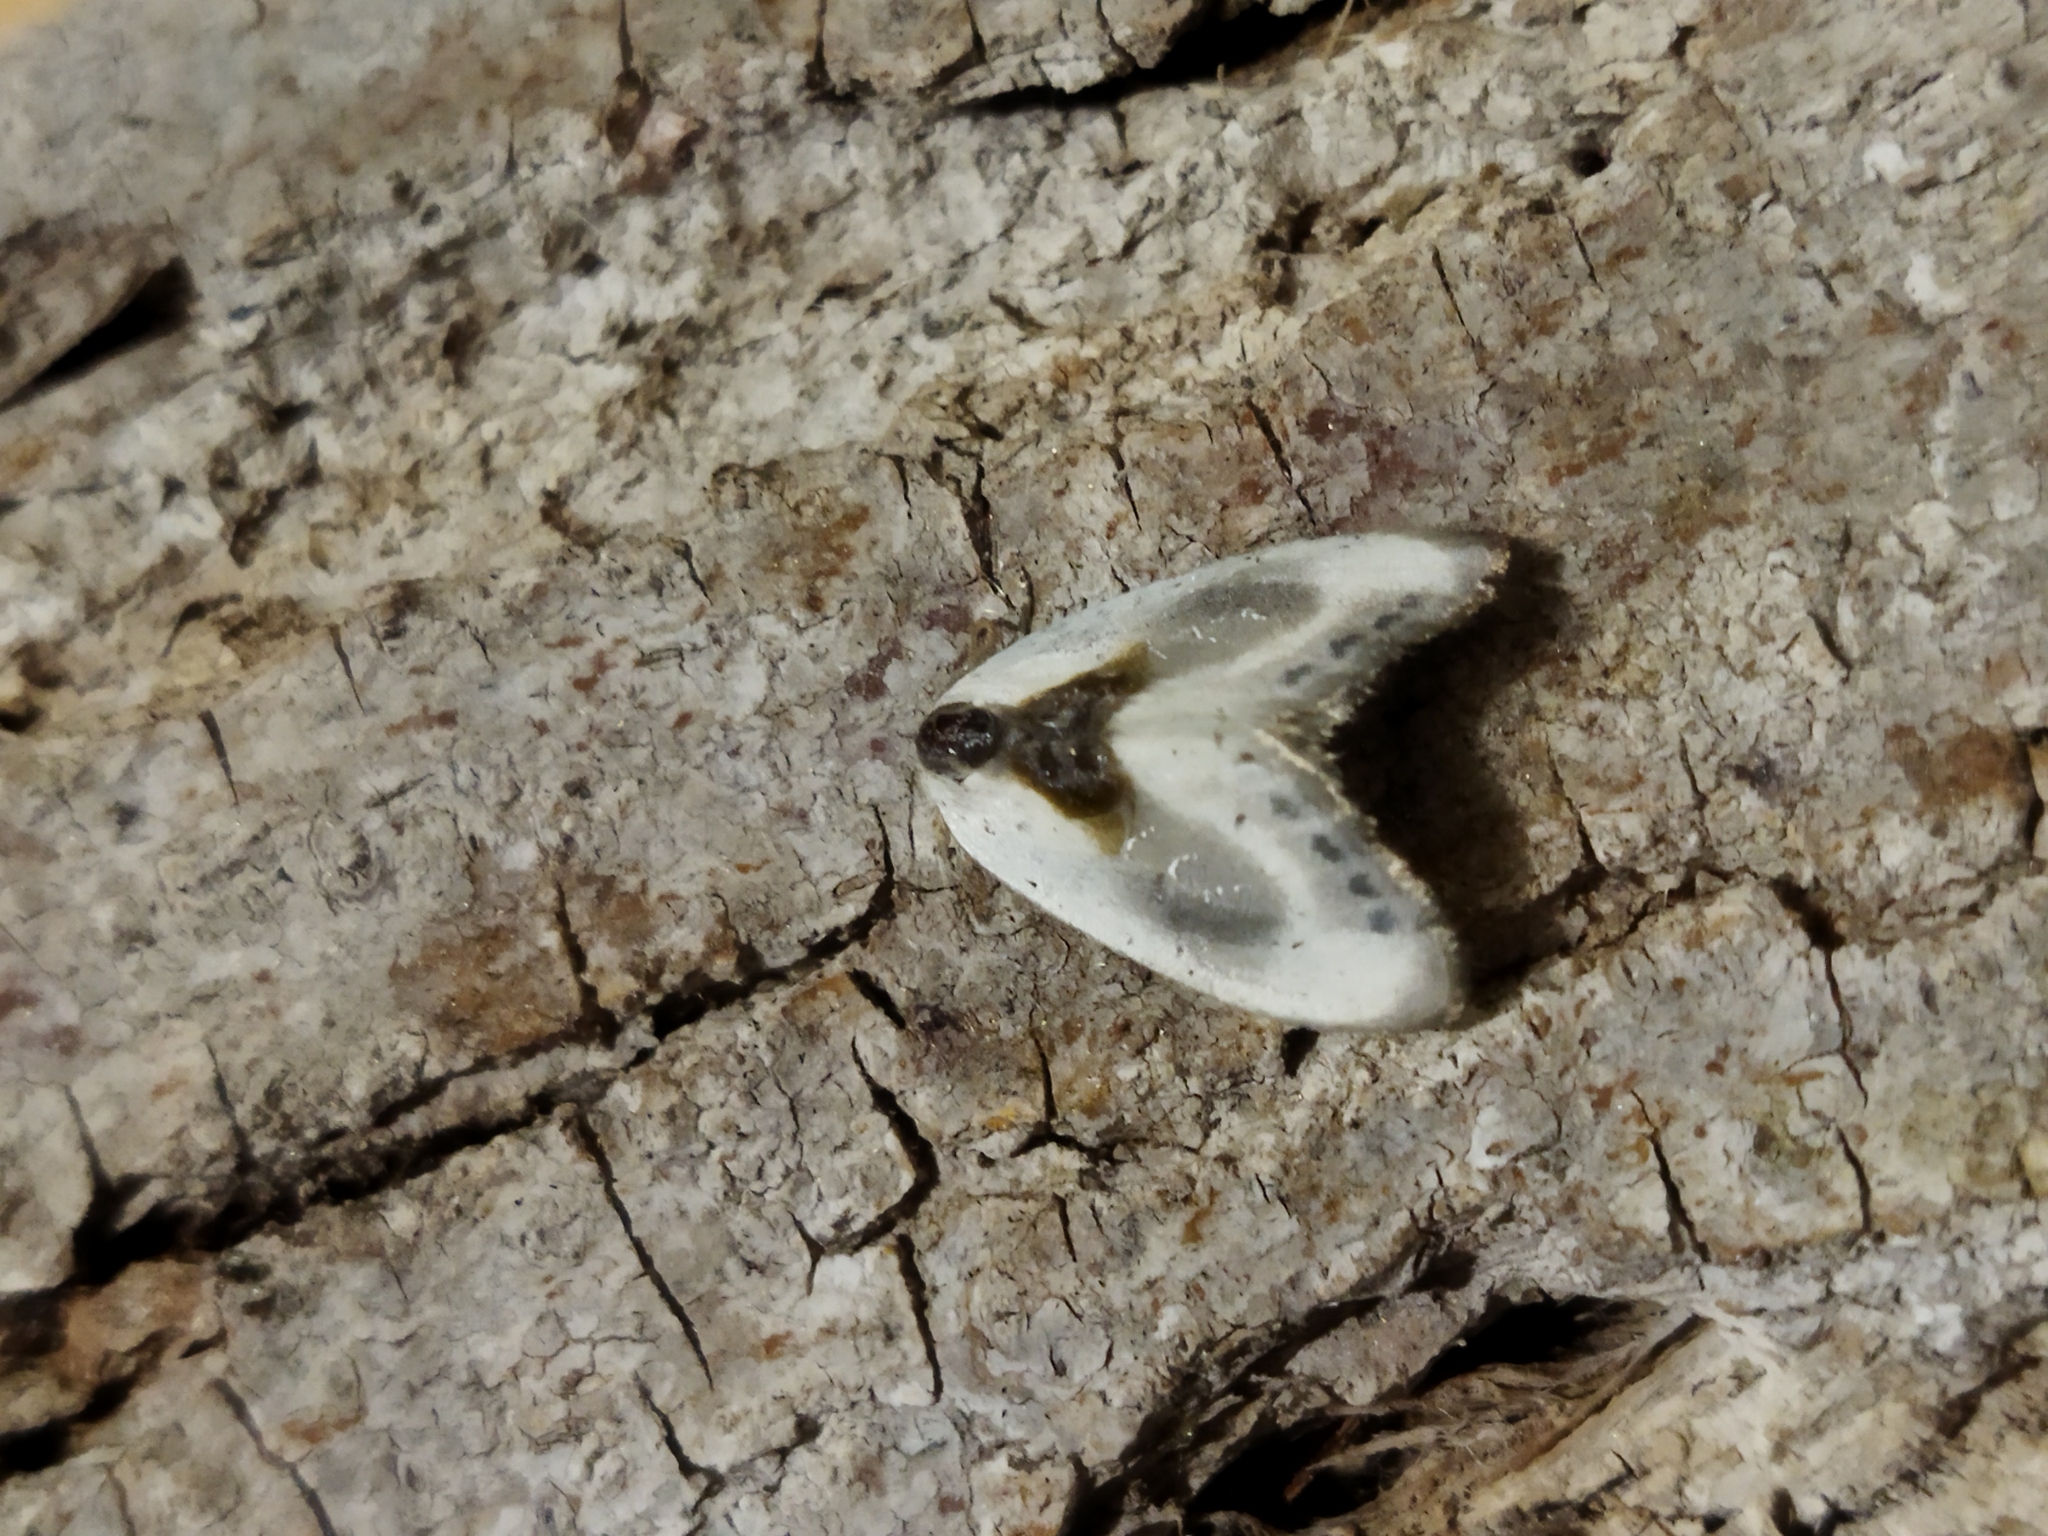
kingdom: Animalia
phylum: Arthropoda
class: Insecta
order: Lepidoptera
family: Drepanidae
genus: Cilix
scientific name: Cilix asiatica
